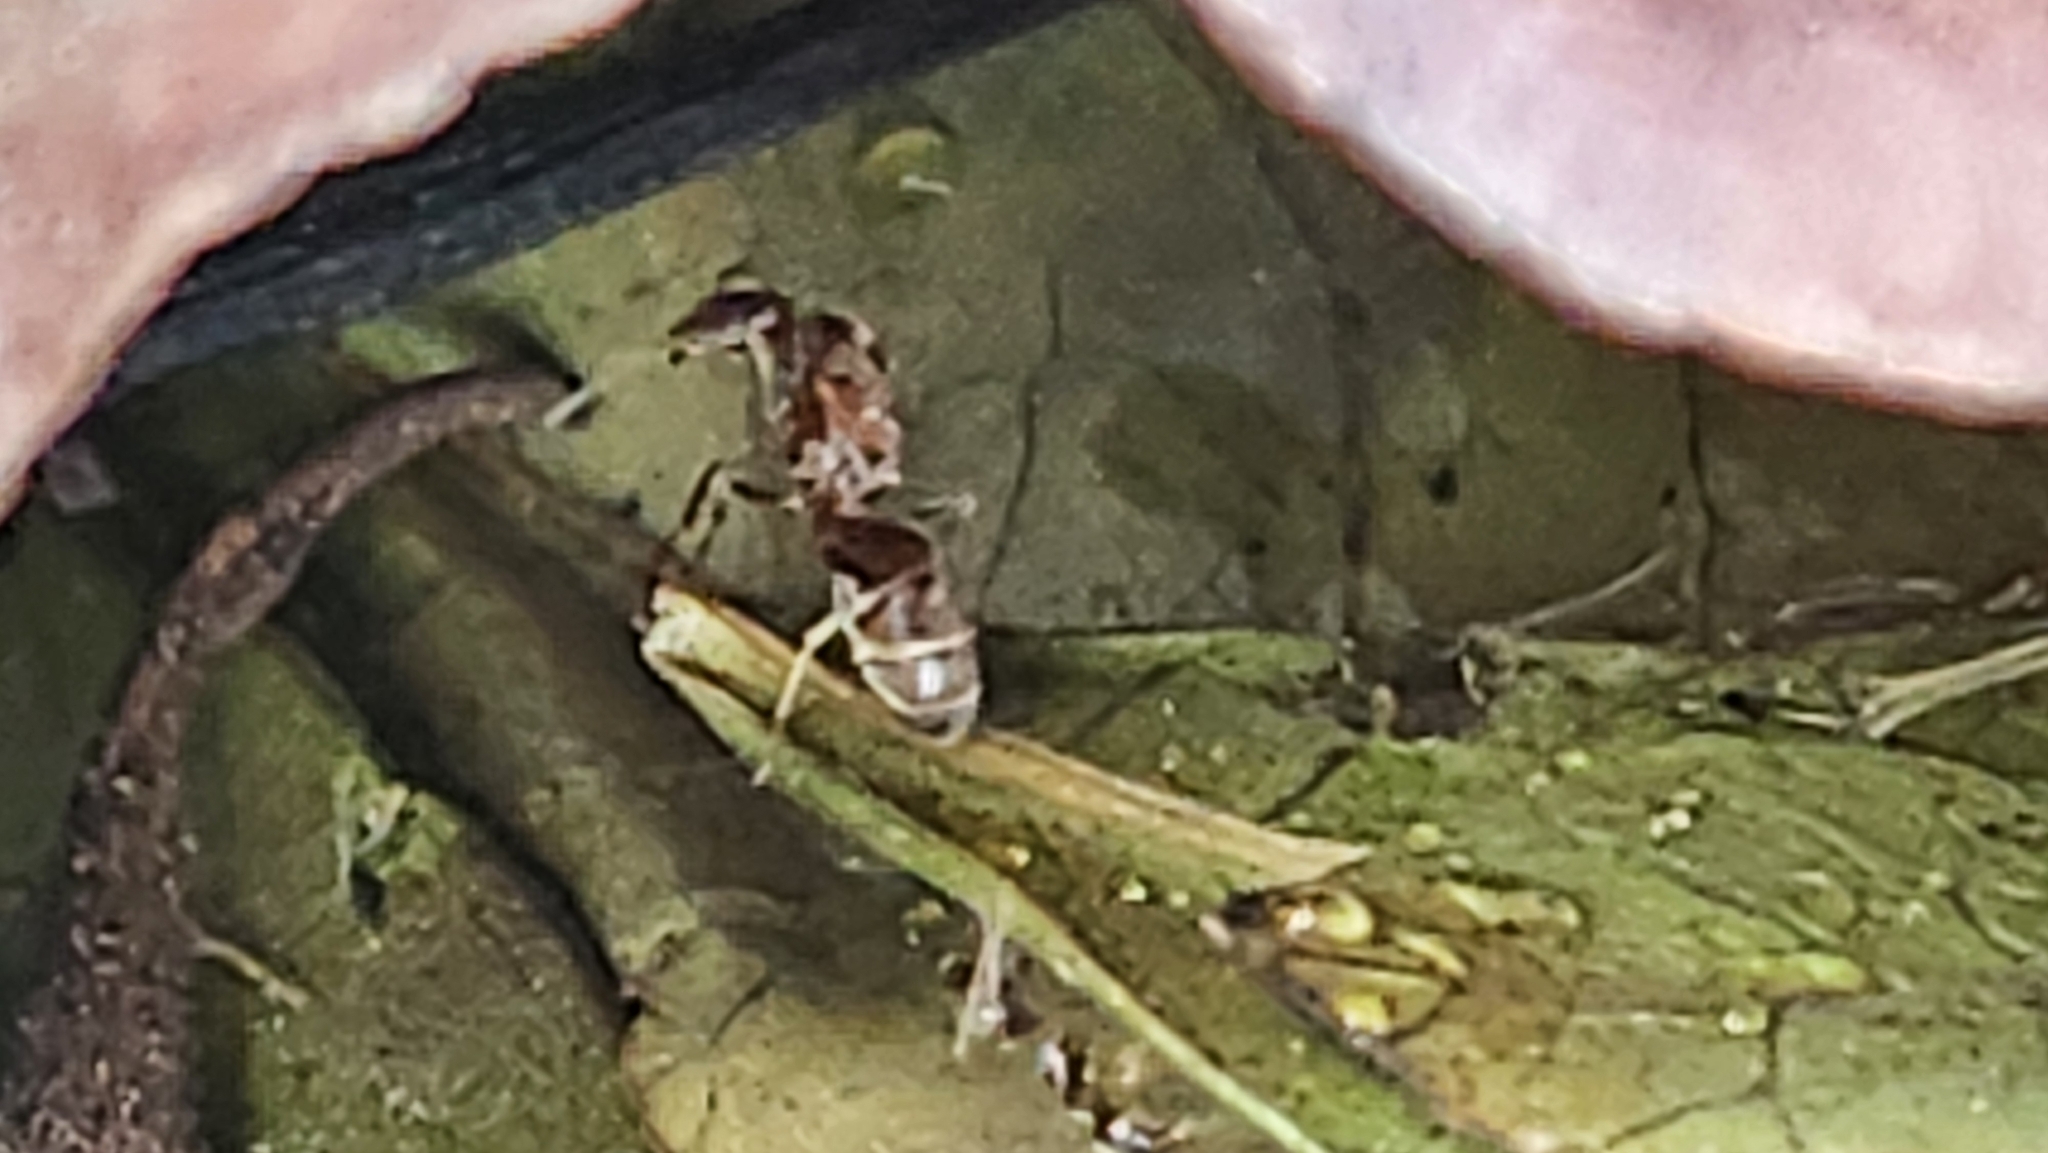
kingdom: Animalia
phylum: Arthropoda
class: Insecta
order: Hymenoptera
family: Formicidae
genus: Linepithema
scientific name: Linepithema humile
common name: Argentine ant
